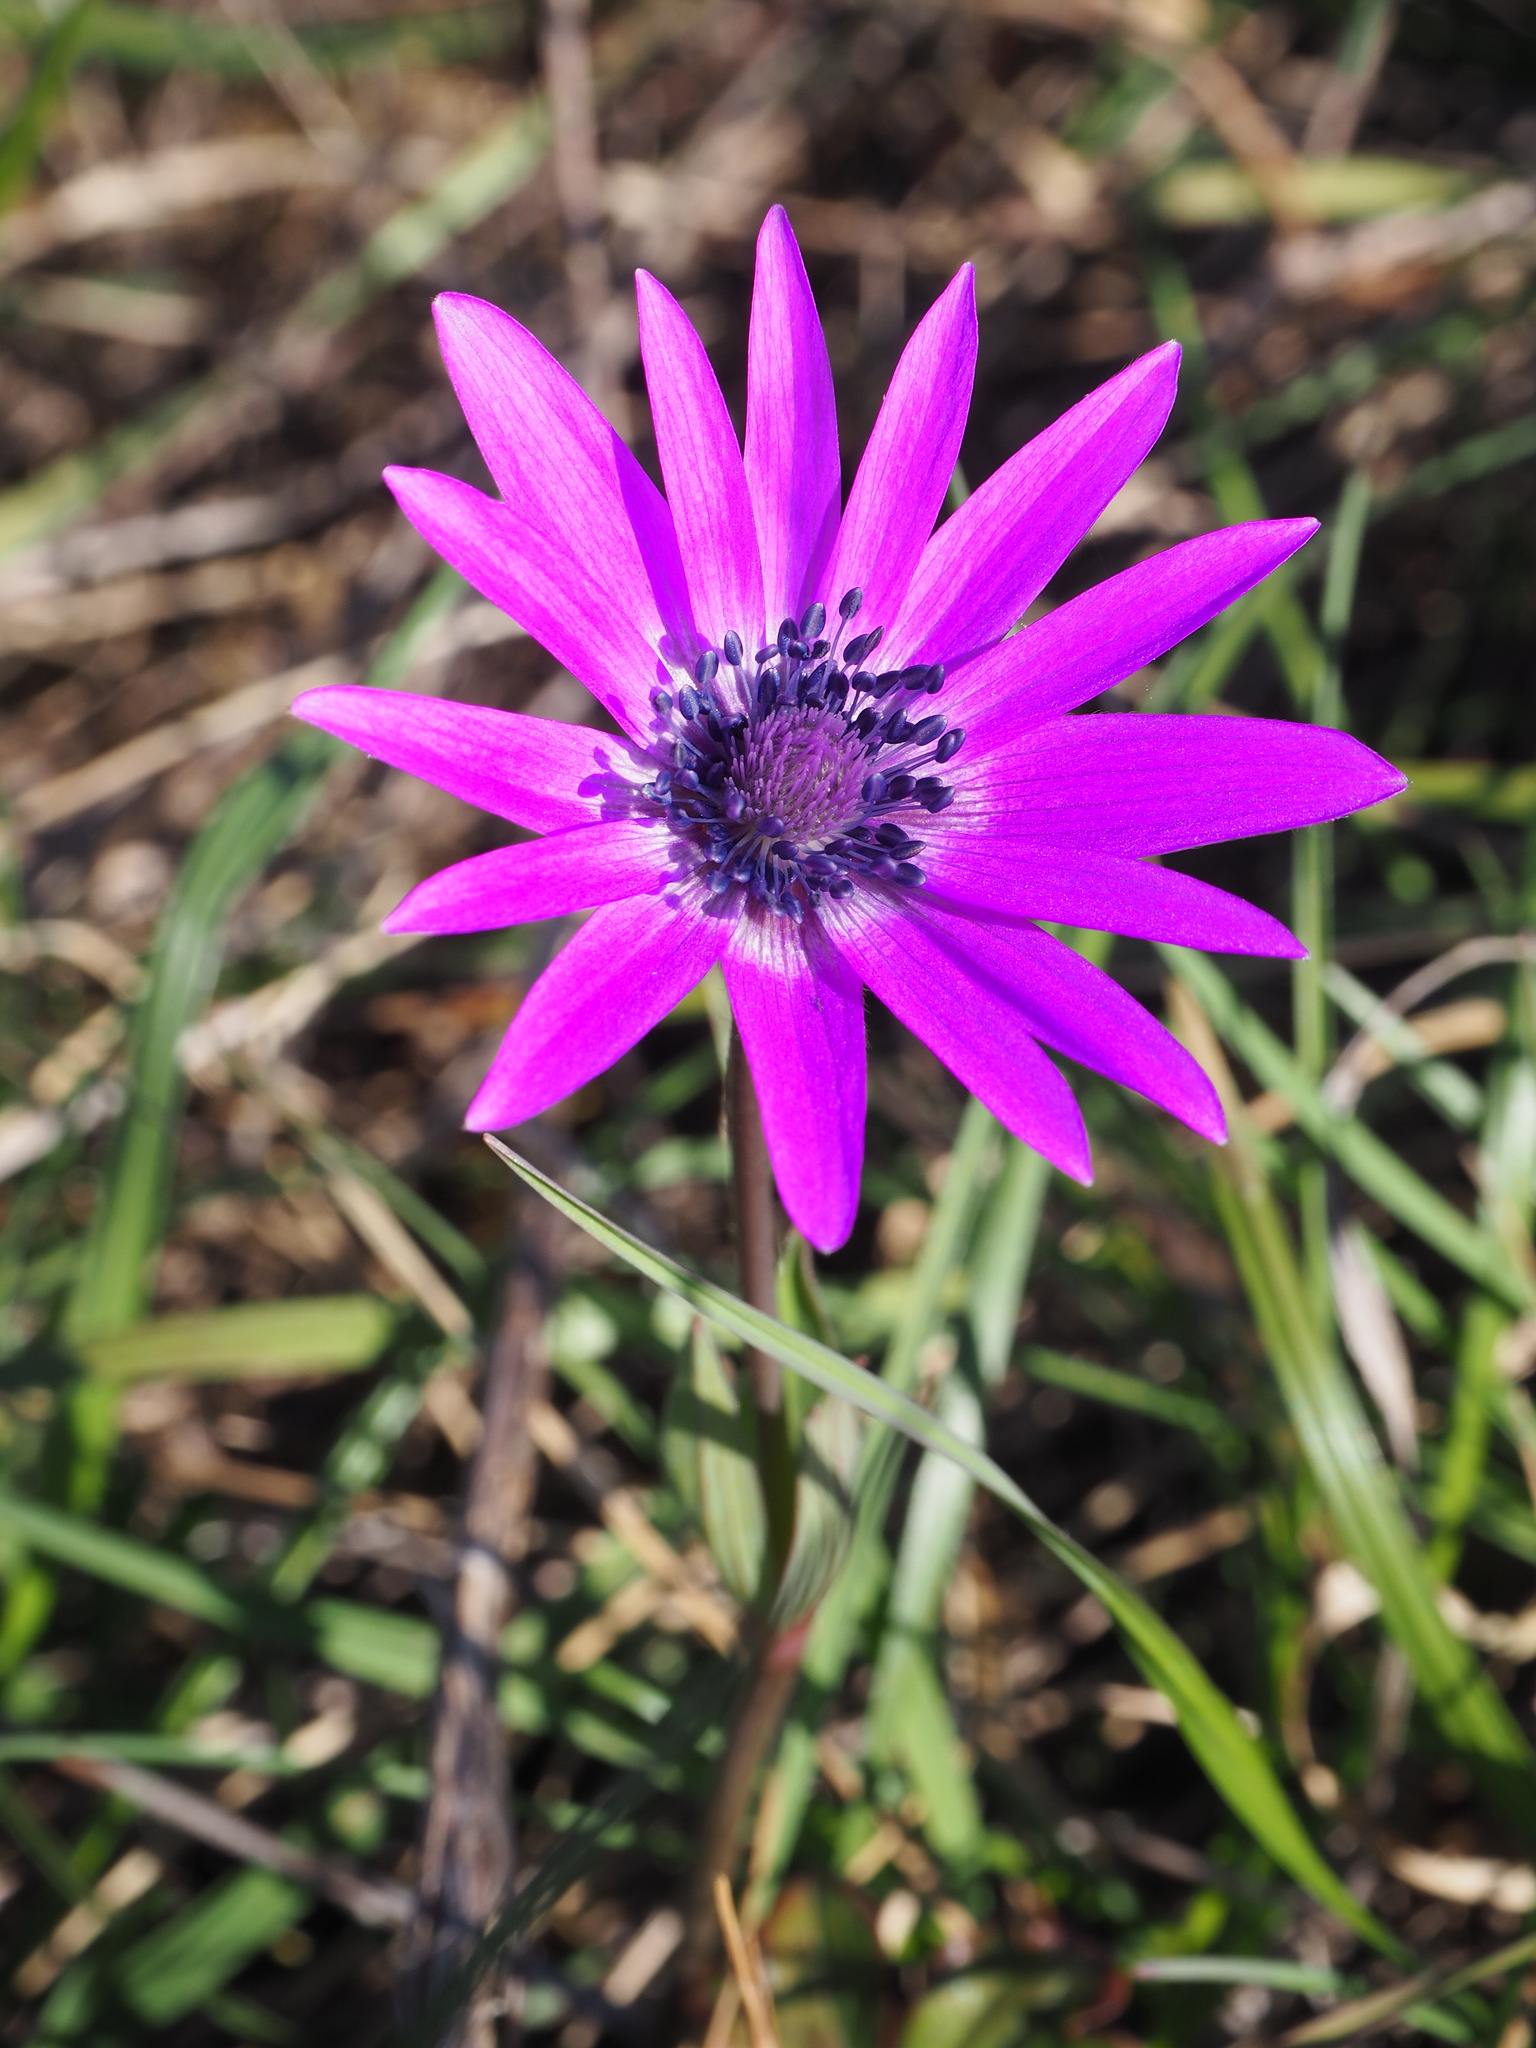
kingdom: Plantae
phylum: Tracheophyta
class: Magnoliopsida
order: Ranunculales
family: Ranunculaceae
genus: Anemone
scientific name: Anemone hortensis
